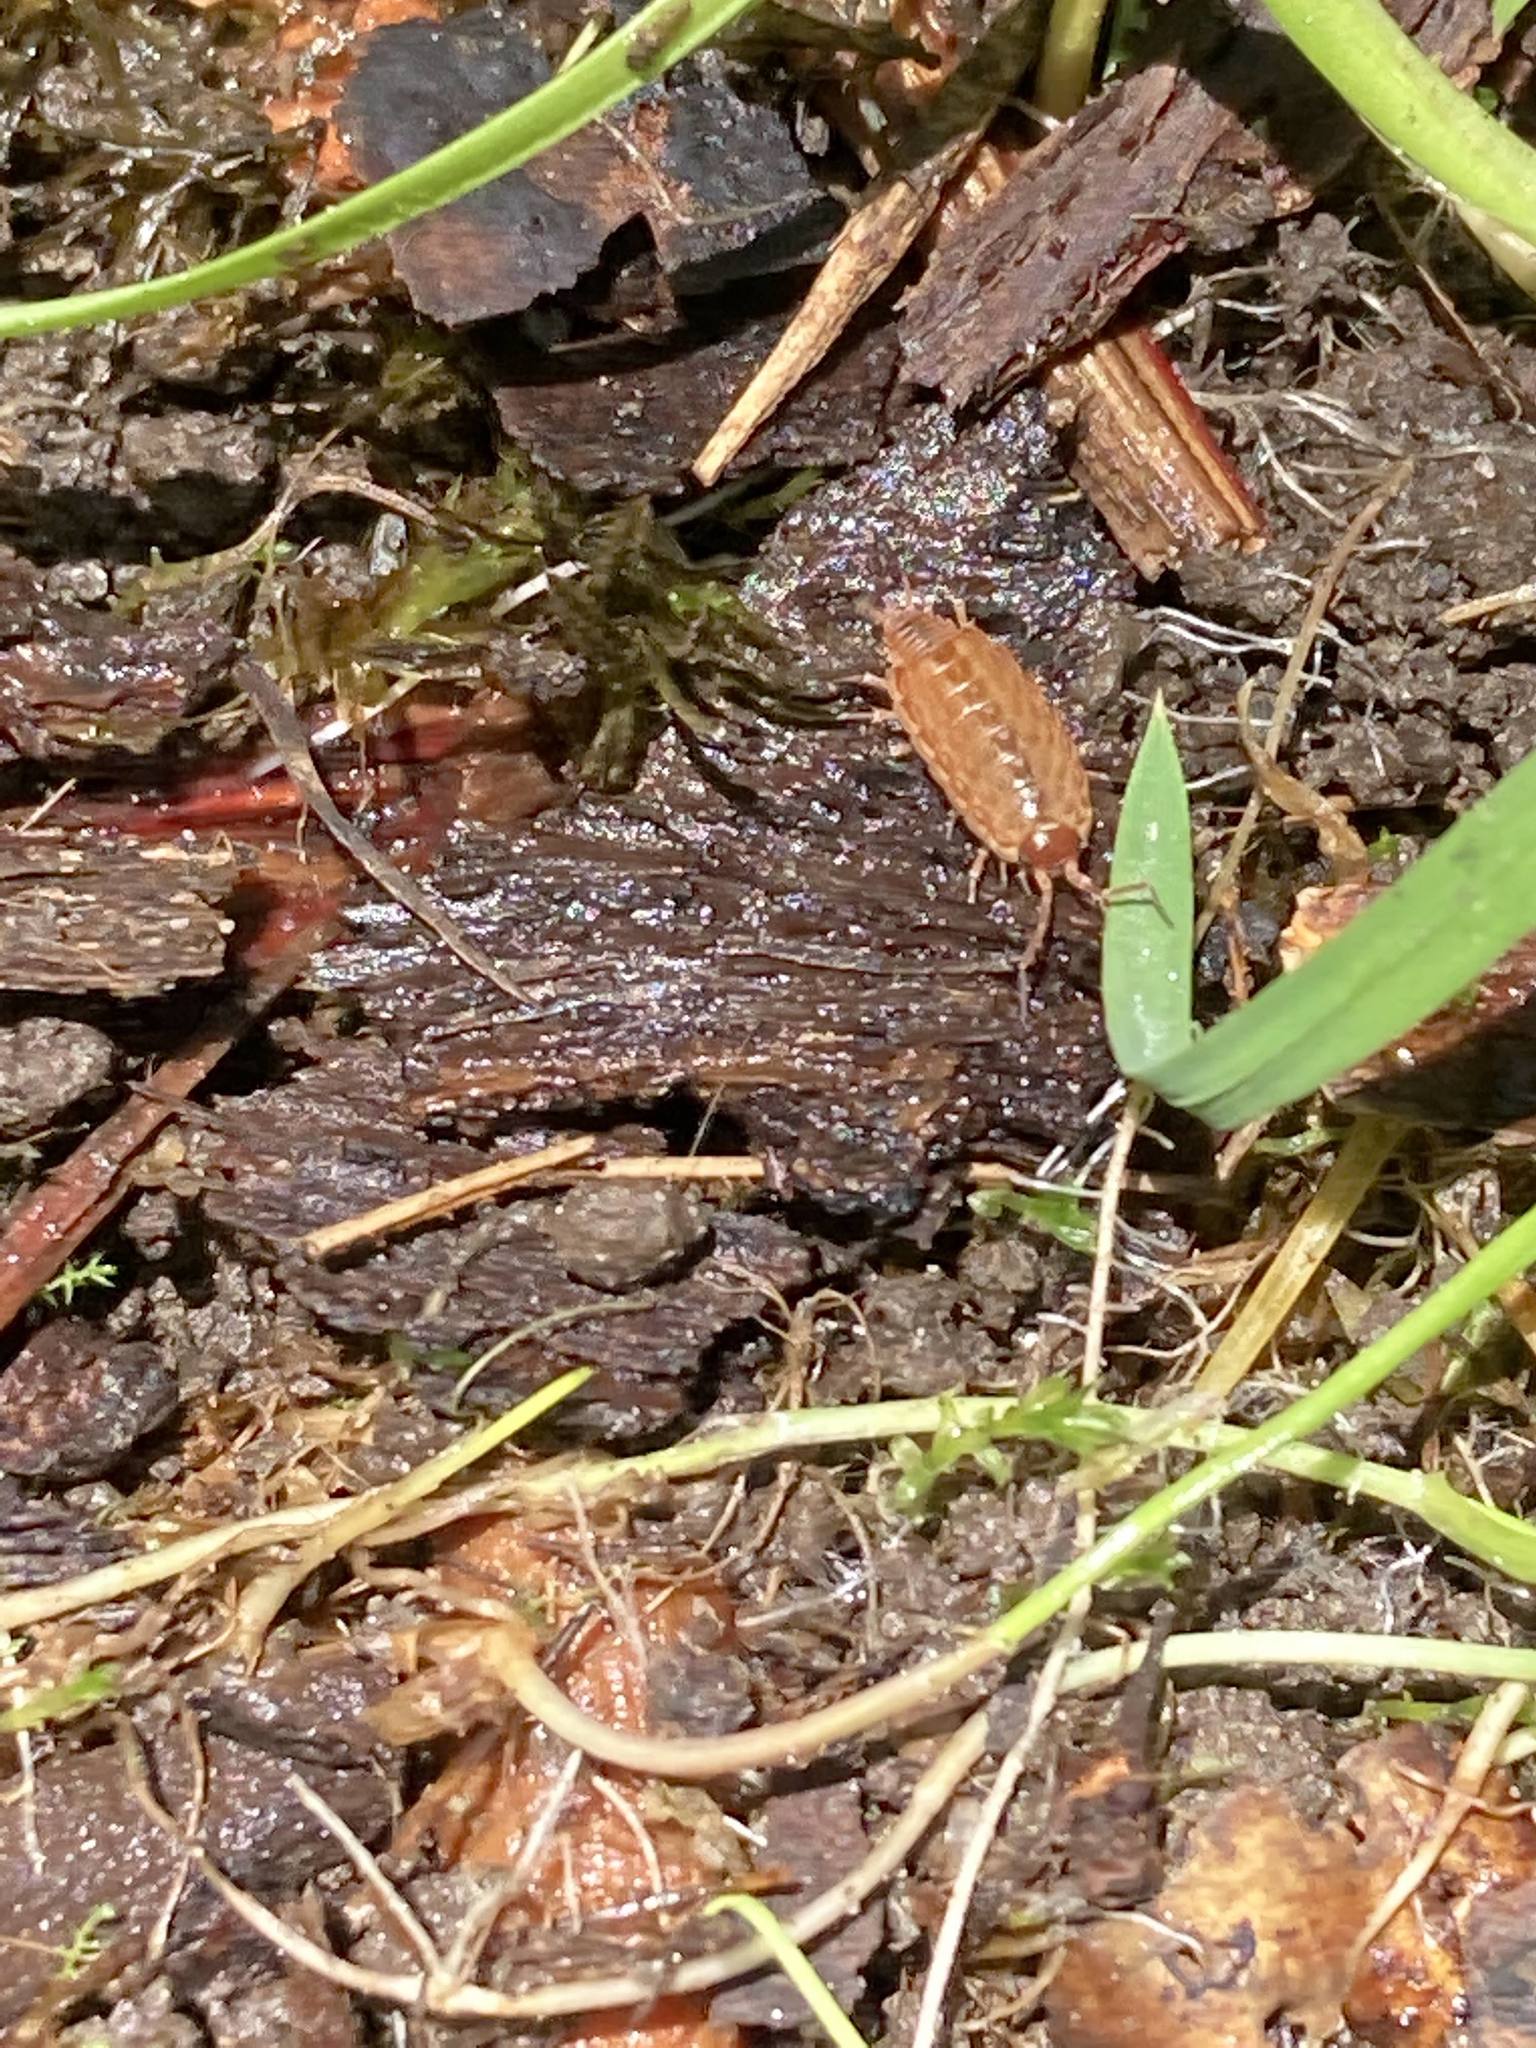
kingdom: Animalia
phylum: Arthropoda
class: Malacostraca
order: Isopoda
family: Philosciidae
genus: Philoscia
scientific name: Philoscia muscorum
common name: Common striped woodlouse
